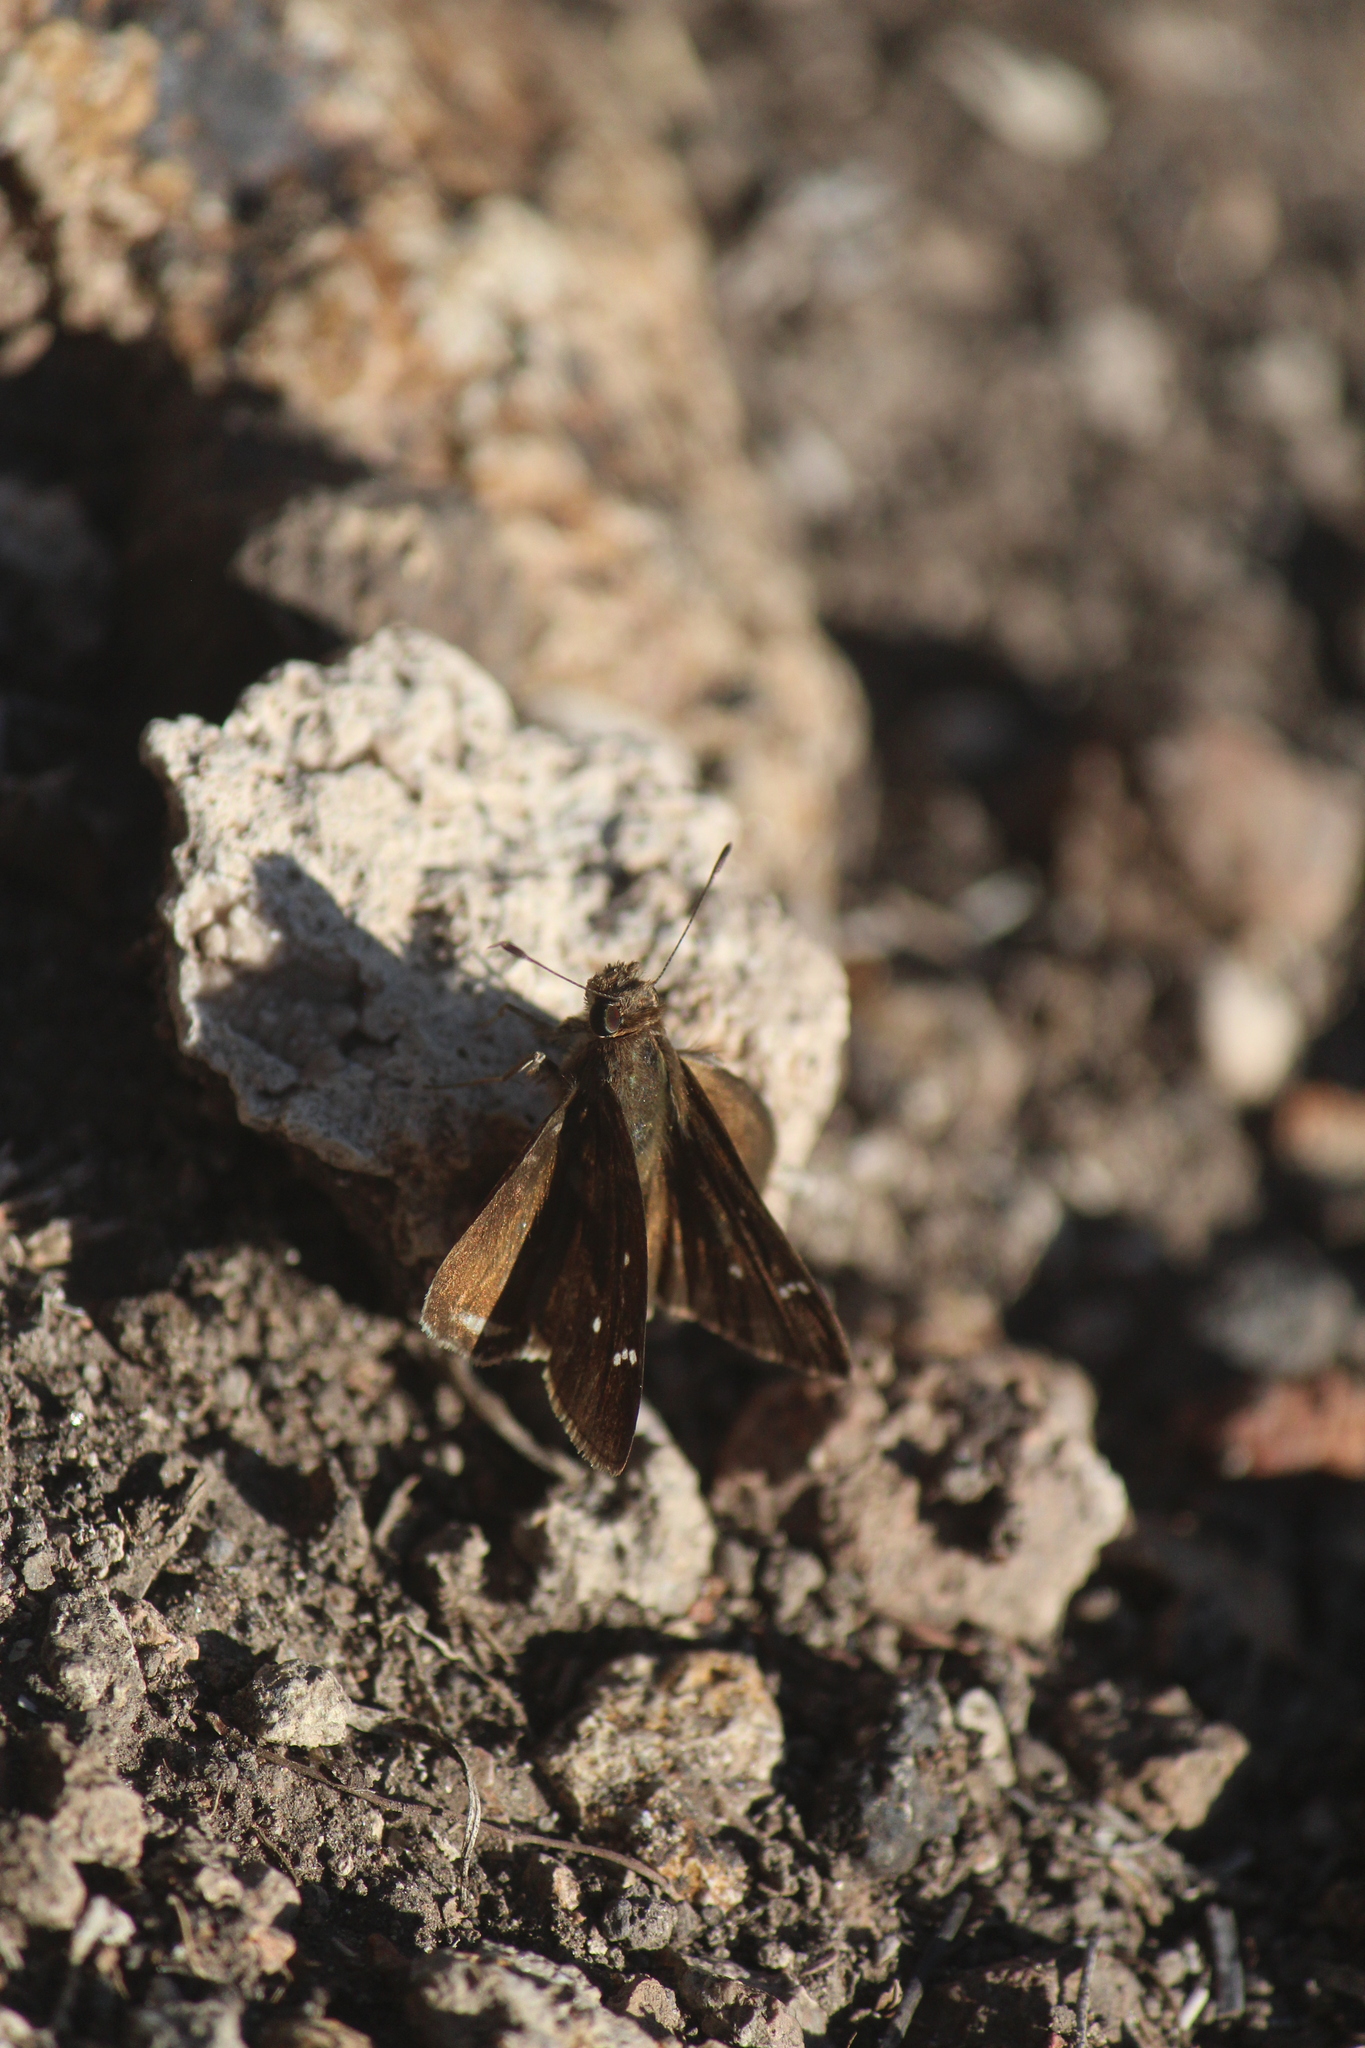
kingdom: Animalia
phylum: Arthropoda
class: Insecta
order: Lepidoptera
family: Hesperiidae
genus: Lerema
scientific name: Lerema
